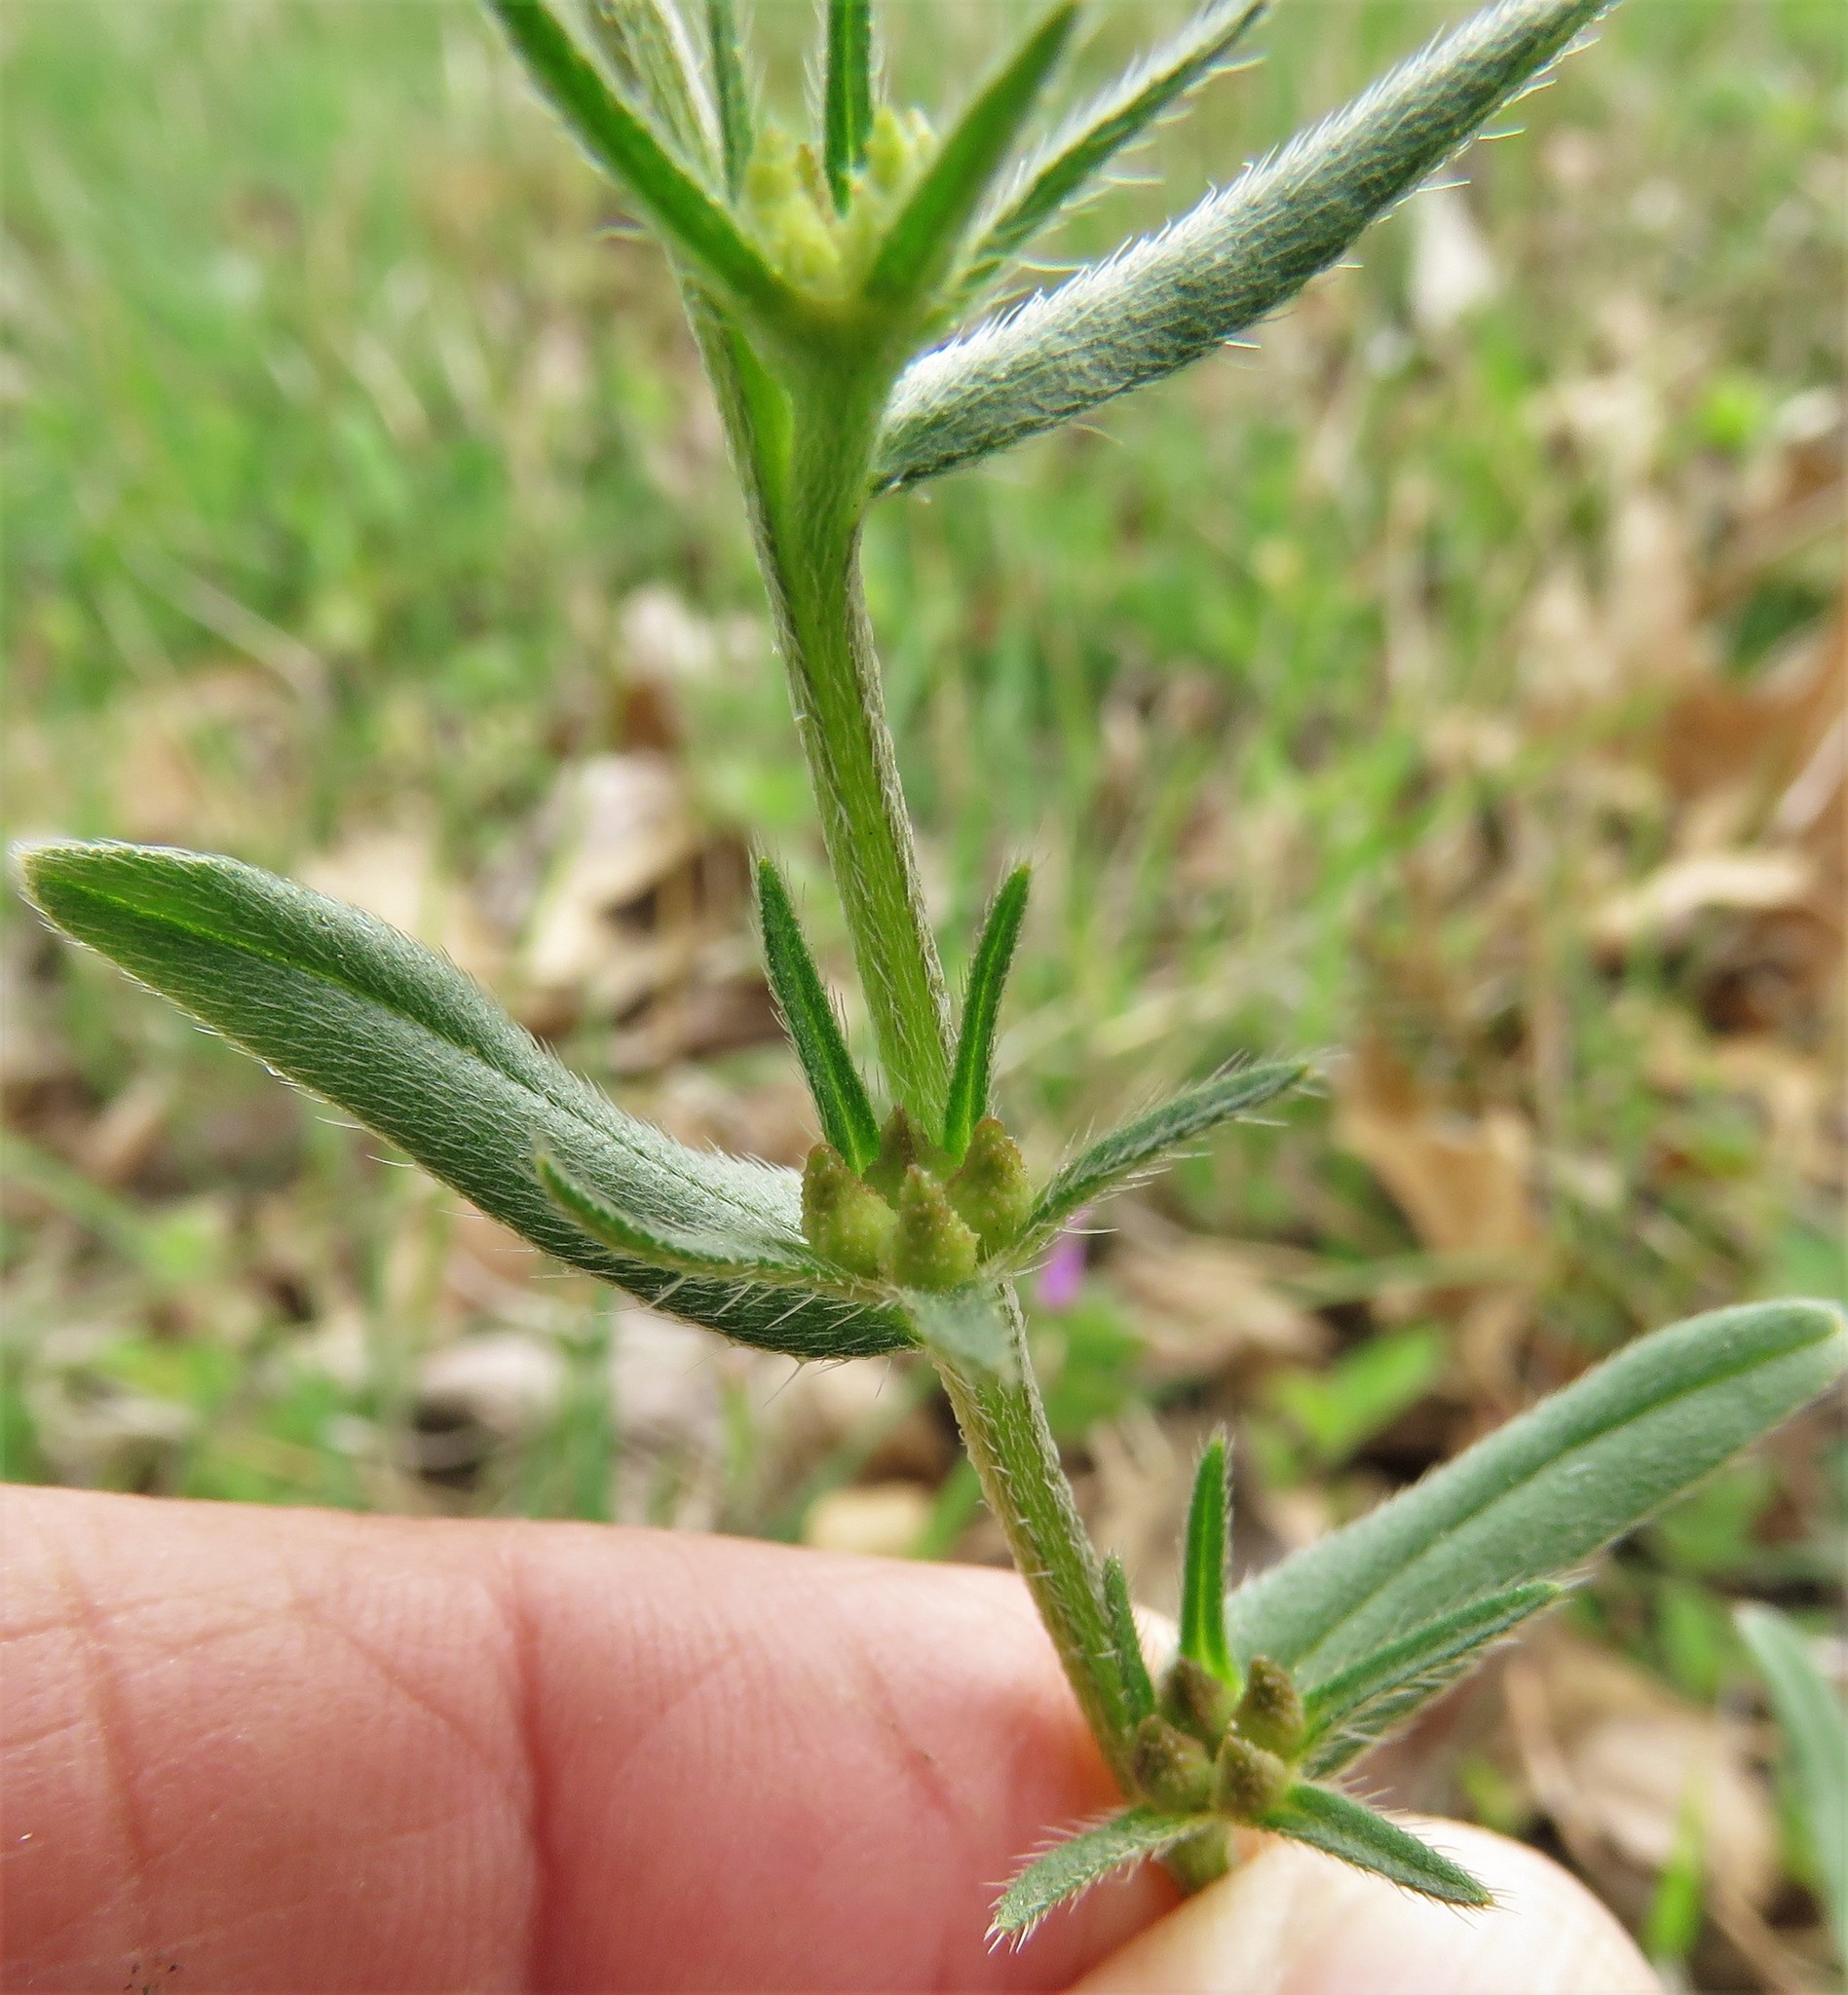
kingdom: Plantae
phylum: Tracheophyta
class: Magnoliopsida
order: Boraginales
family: Boraginaceae
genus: Buglossoides
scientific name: Buglossoides arvensis
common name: Corn gromwell
